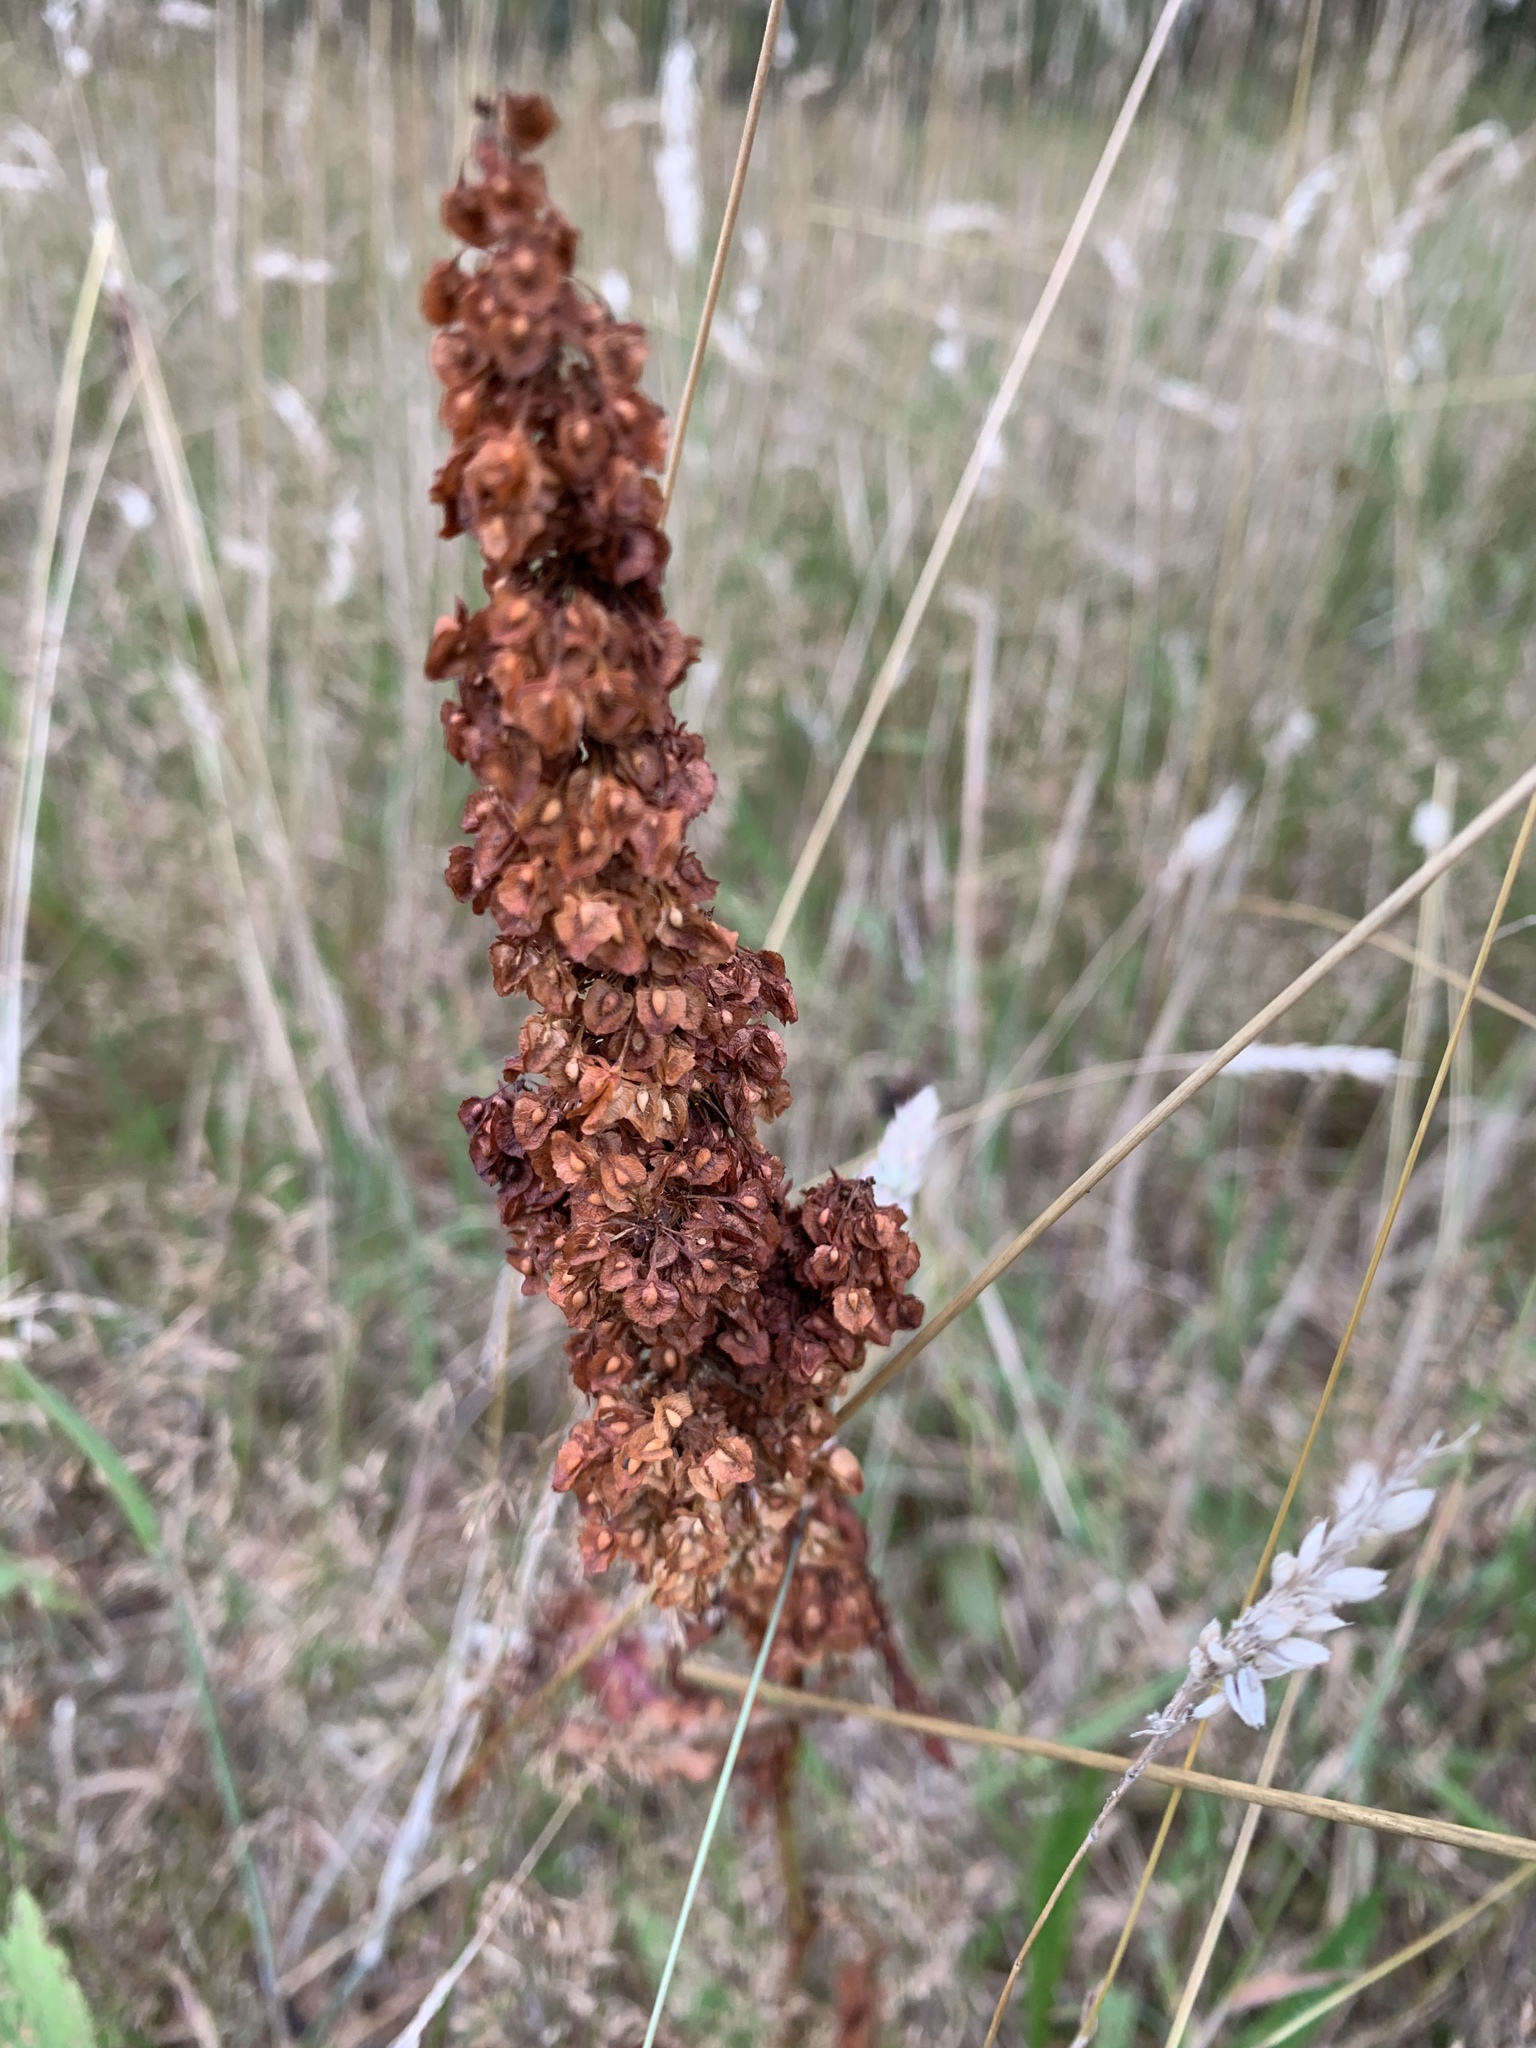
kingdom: Plantae
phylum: Tracheophyta
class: Magnoliopsida
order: Caryophyllales
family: Polygonaceae
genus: Rumex
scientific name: Rumex crispus
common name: Curled dock
